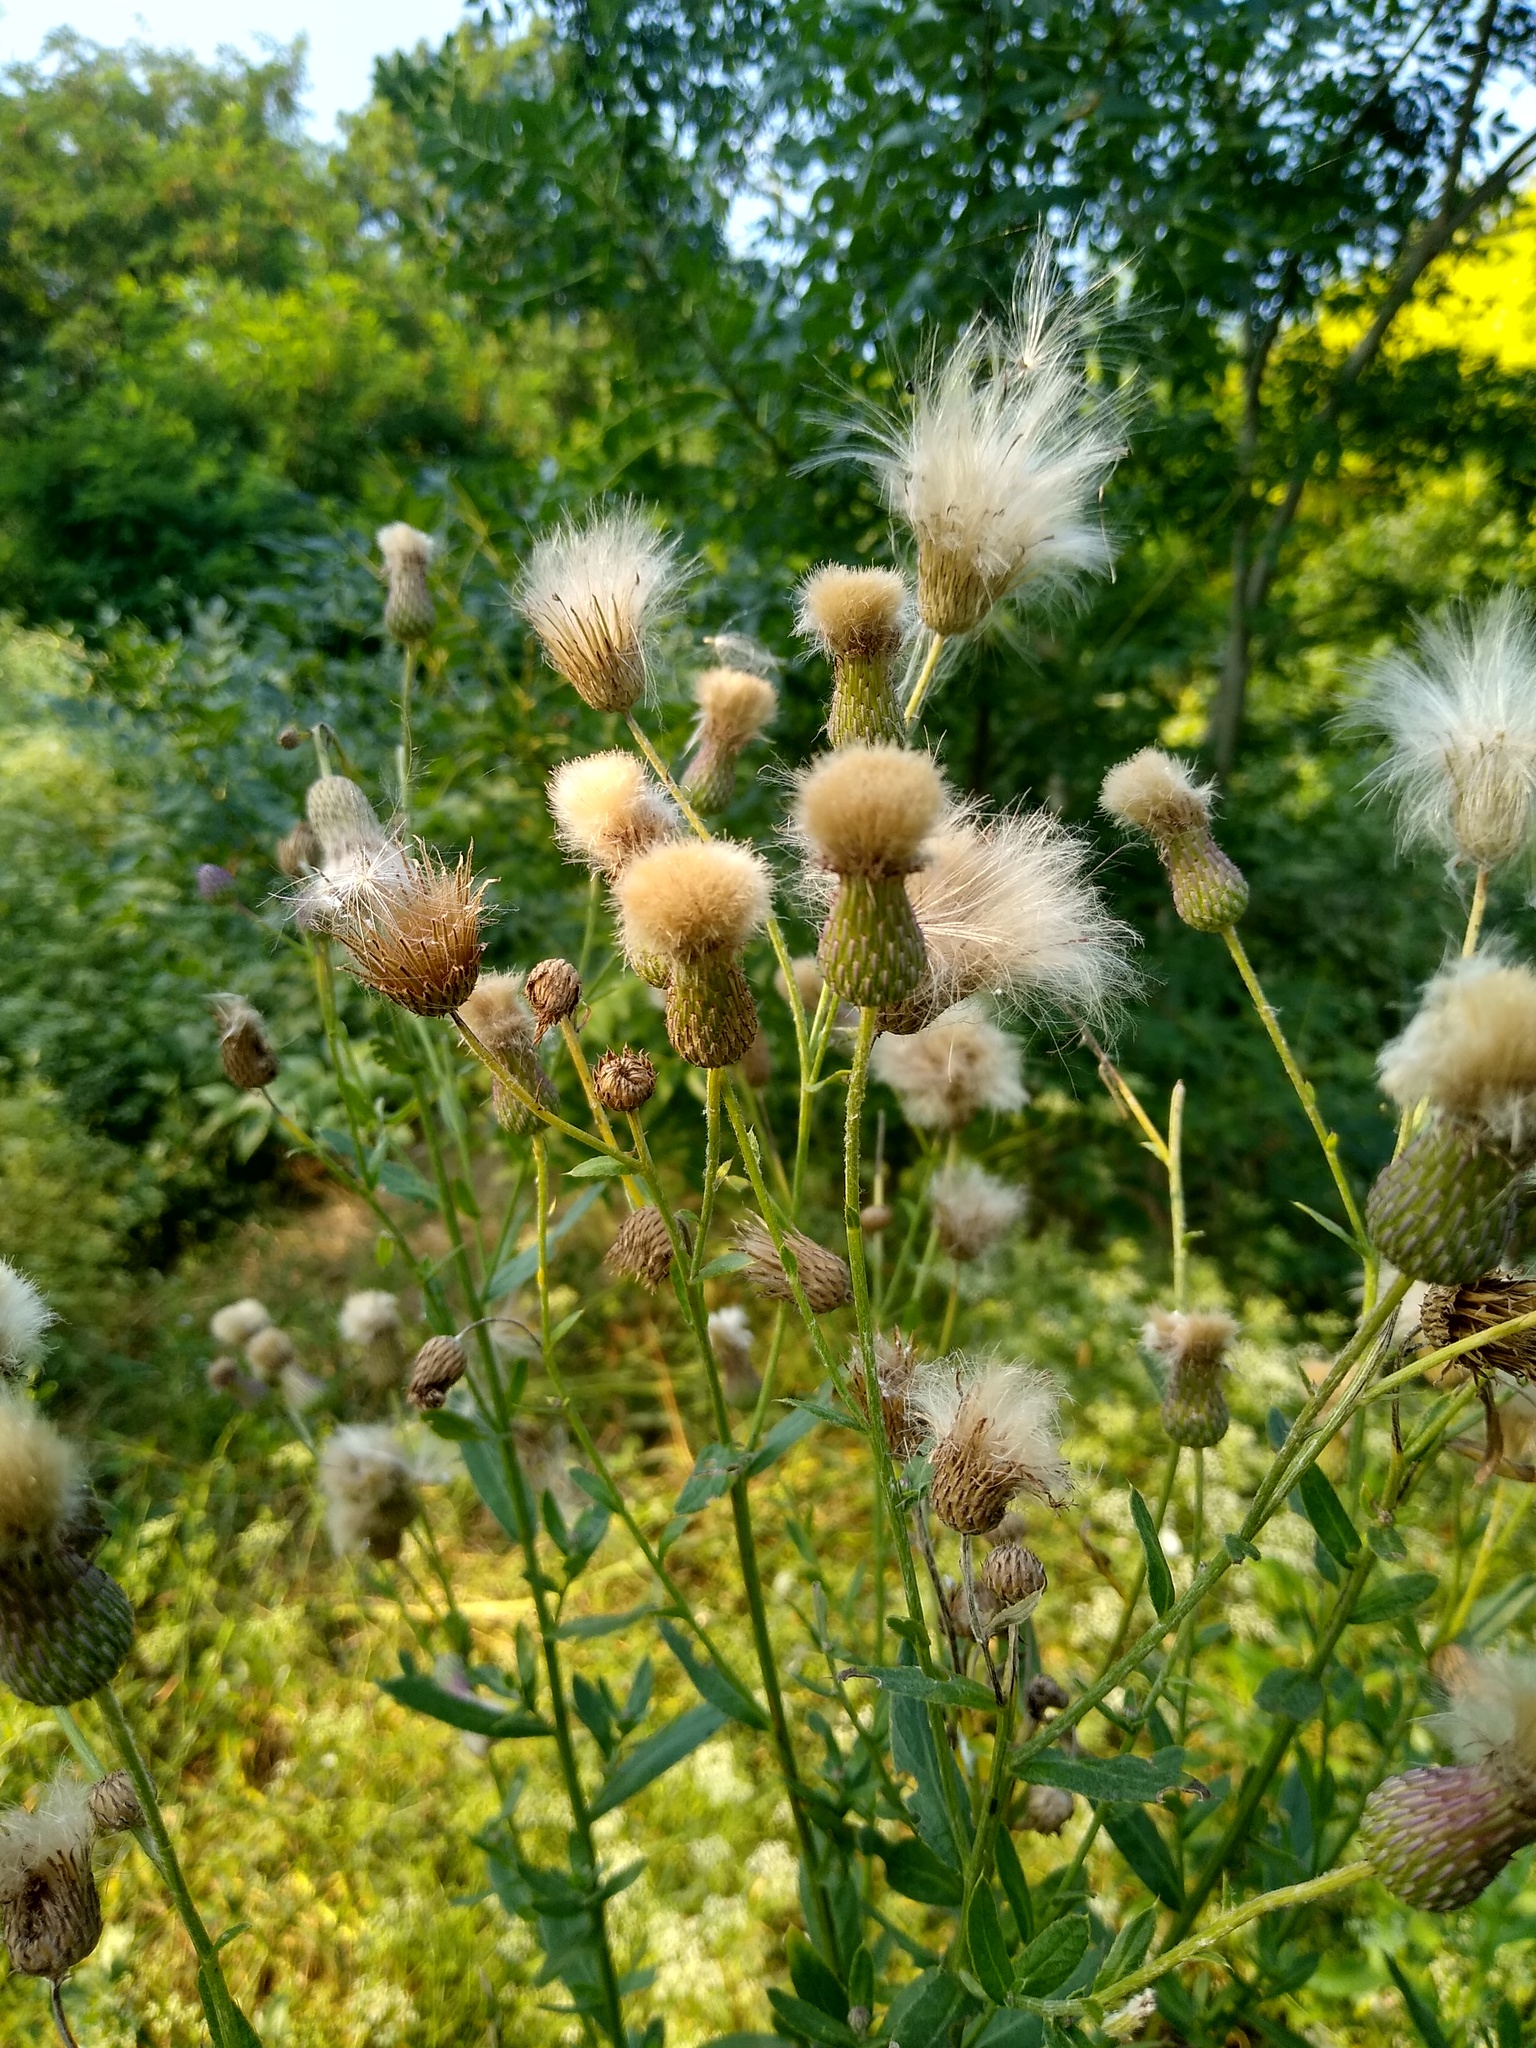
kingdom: Plantae
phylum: Tracheophyta
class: Magnoliopsida
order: Asterales
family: Asteraceae
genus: Cirsium
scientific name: Cirsium arvense
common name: Creeping thistle
